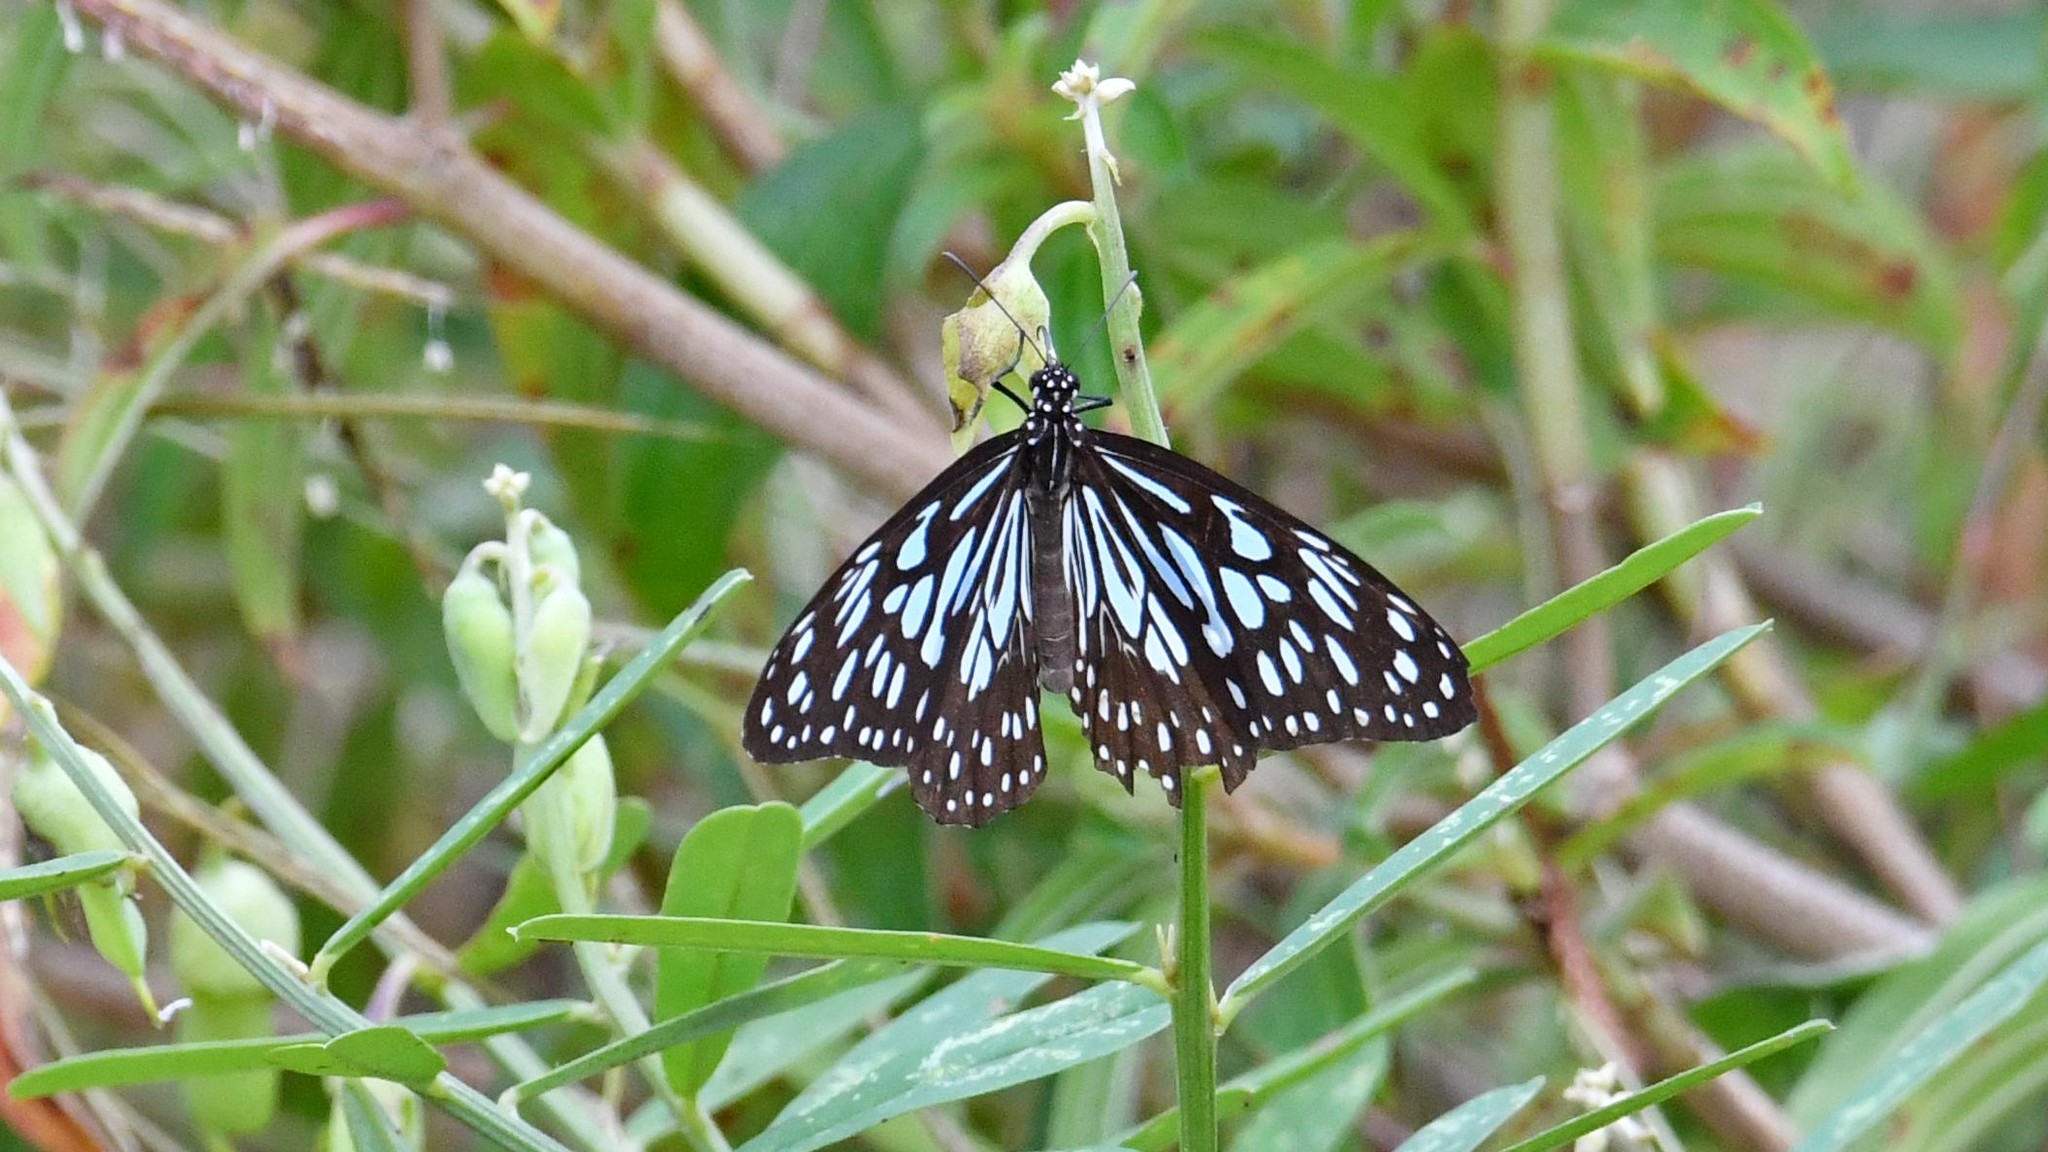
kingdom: Animalia
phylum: Arthropoda
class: Insecta
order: Lepidoptera
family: Nymphalidae
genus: Tirumala
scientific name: Tirumala septentrionis
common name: Dark blue tiger butterfly
